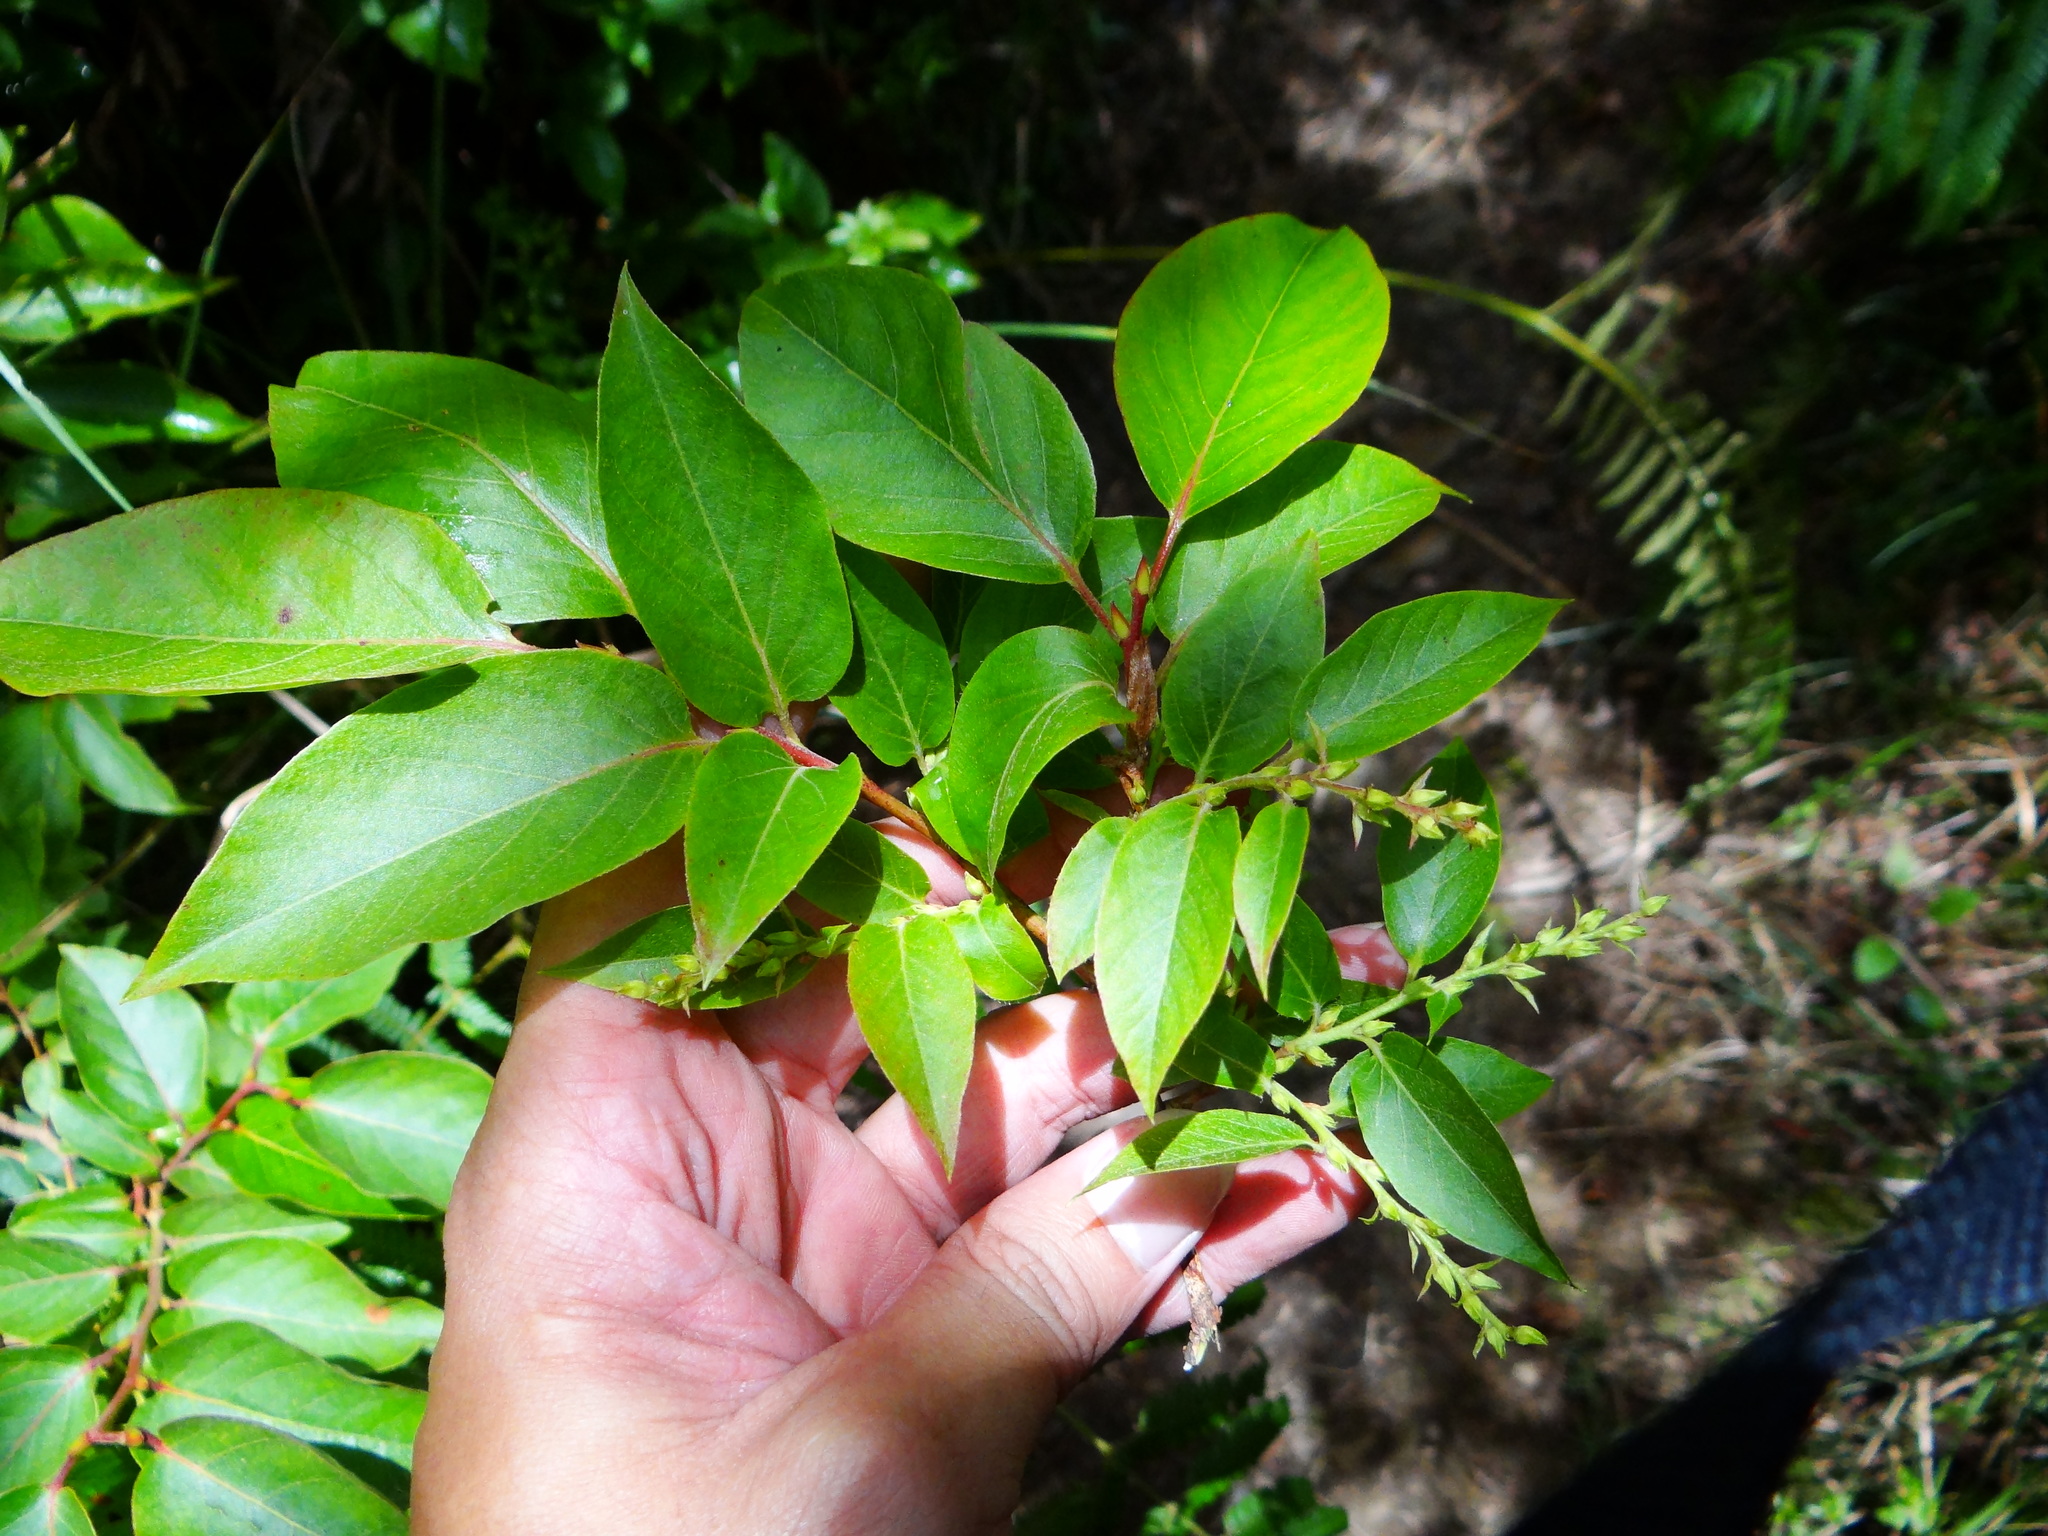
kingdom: Plantae
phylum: Tracheophyta
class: Magnoliopsida
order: Ericales
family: Ericaceae
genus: Lyonia
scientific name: Lyonia ovalifolia
